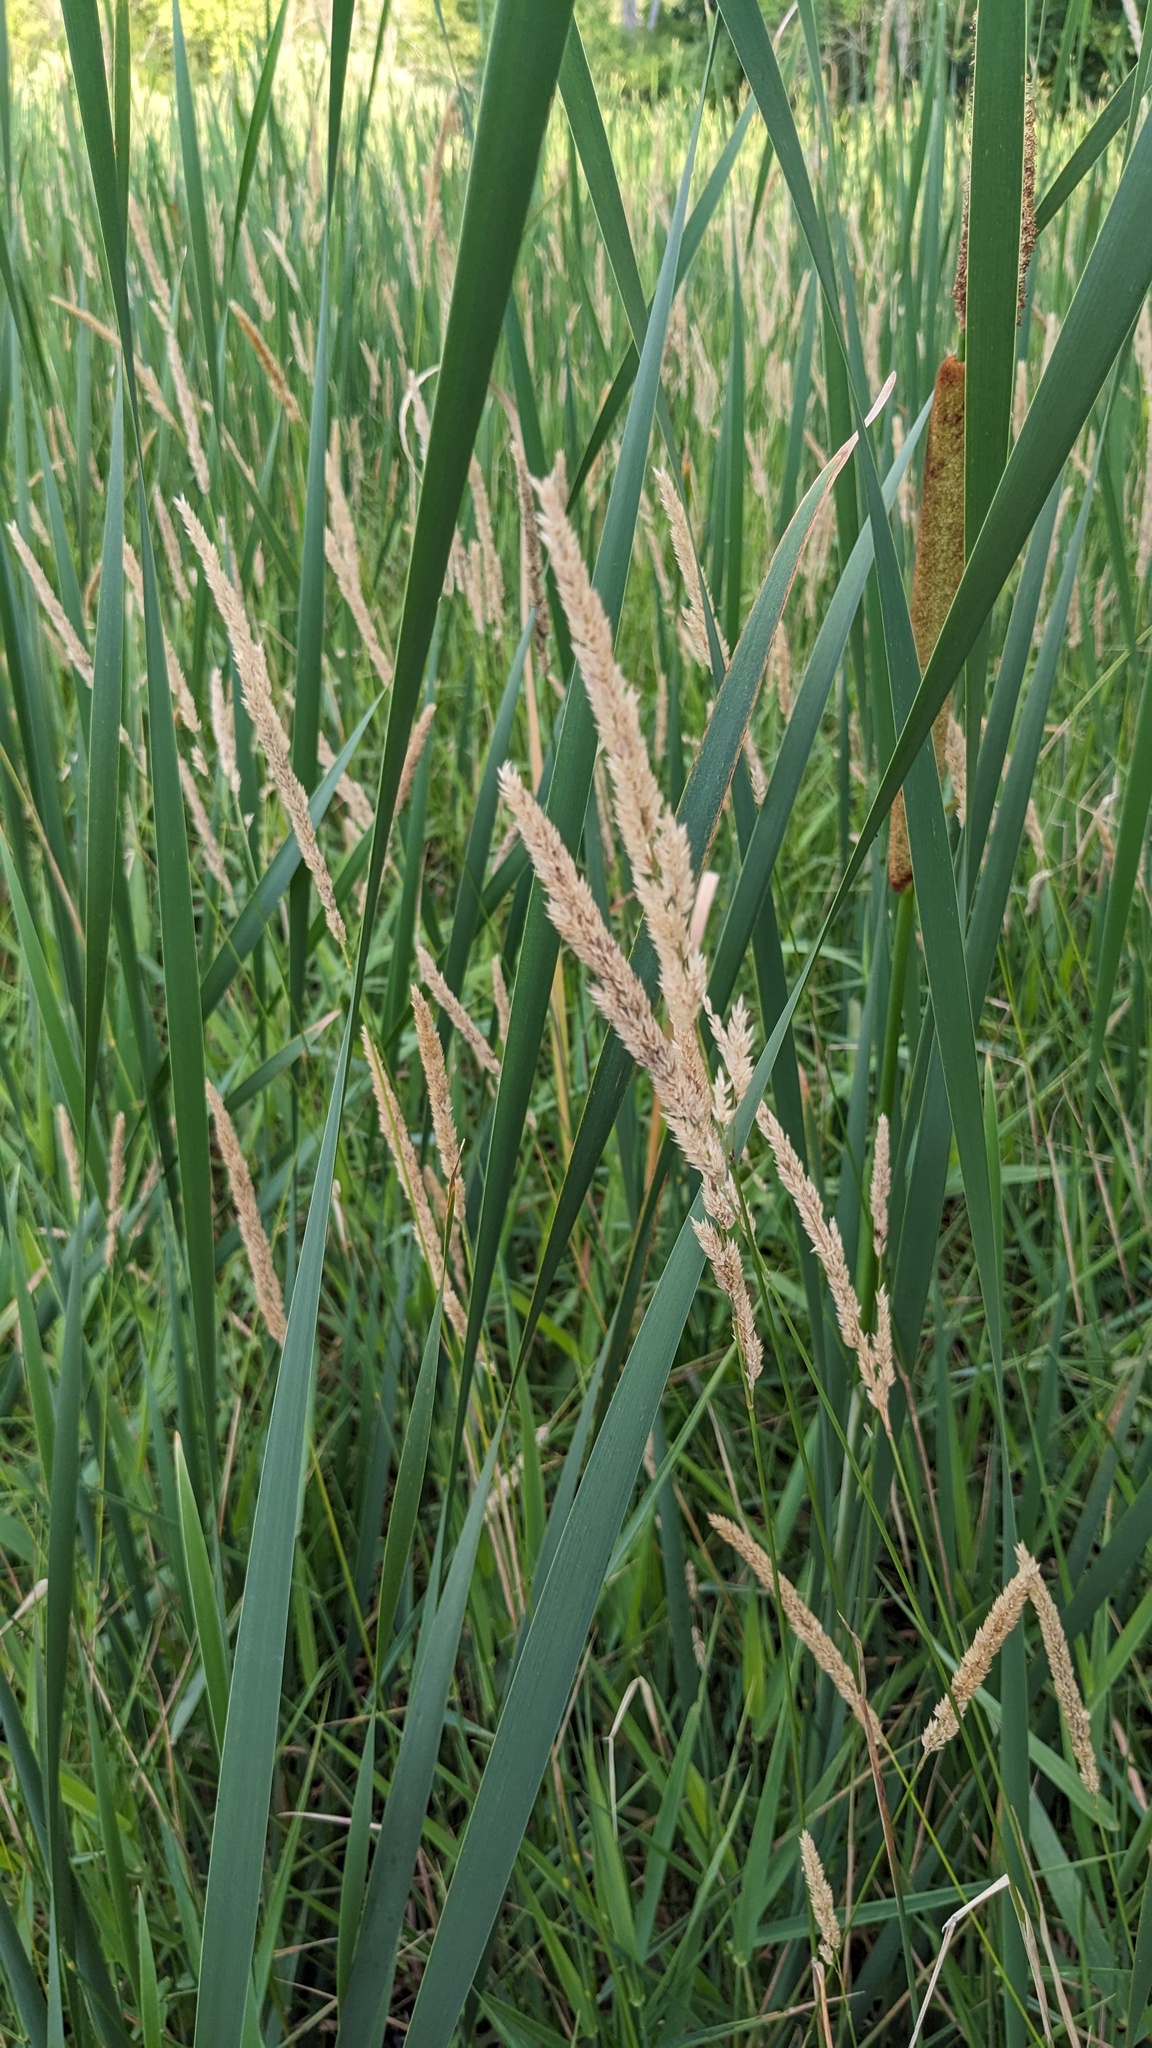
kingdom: Plantae
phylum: Tracheophyta
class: Liliopsida
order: Poales
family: Poaceae
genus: Phalaris
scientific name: Phalaris arundinacea
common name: Reed canary-grass
